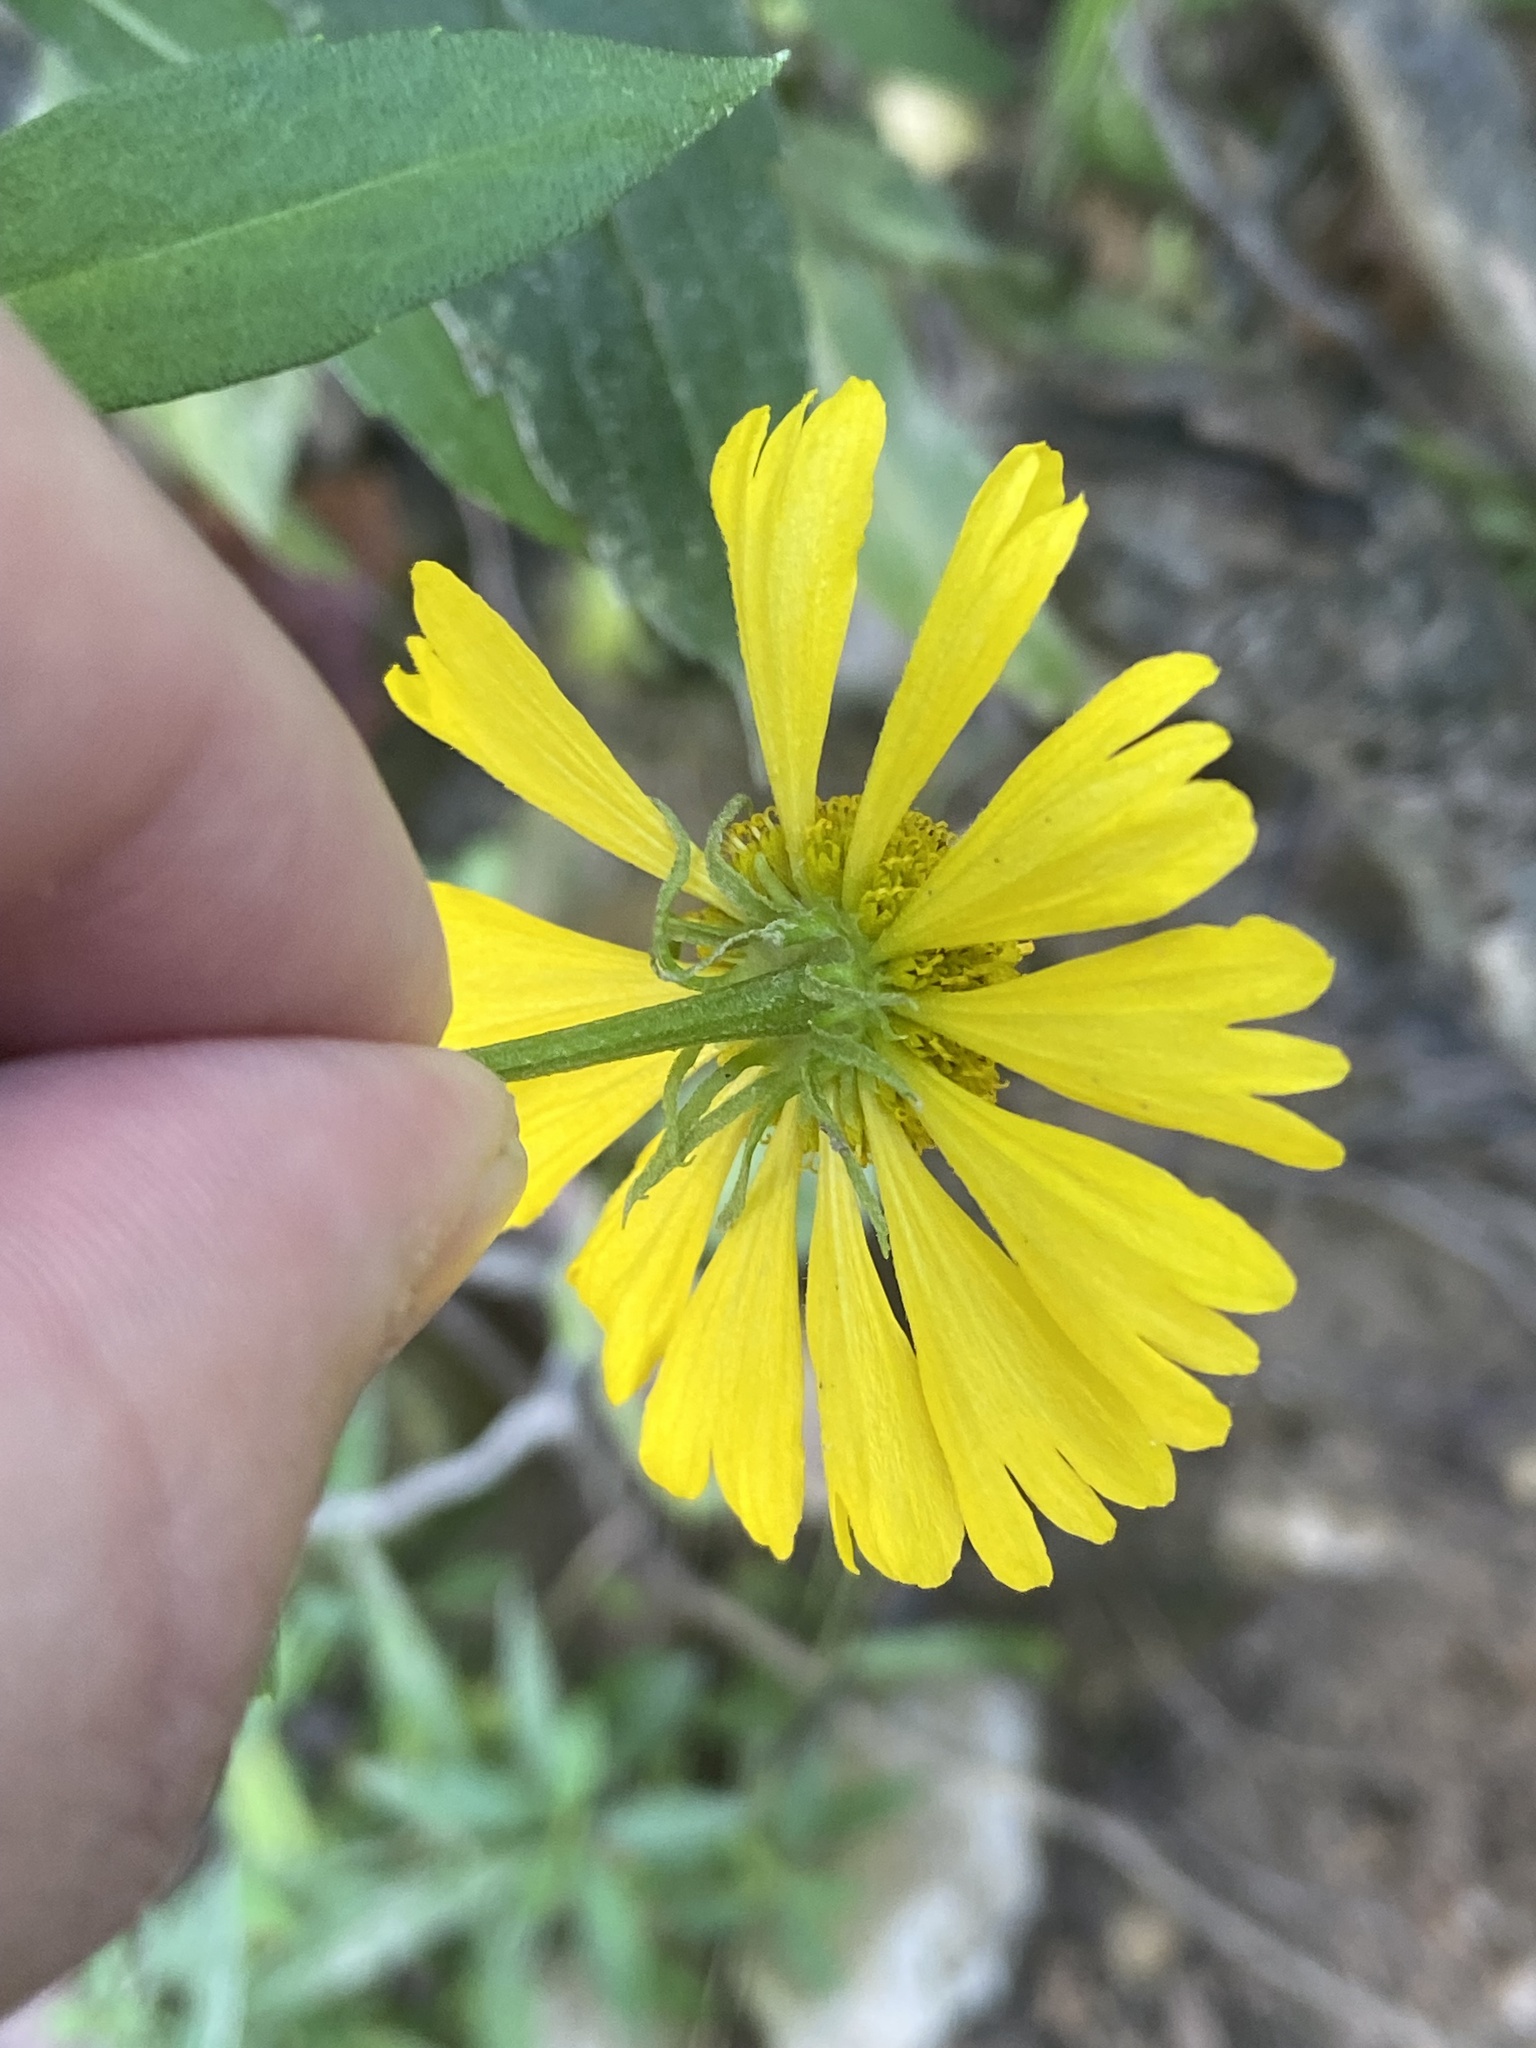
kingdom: Plantae
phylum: Tracheophyta
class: Magnoliopsida
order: Asterales
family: Asteraceae
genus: Helenium
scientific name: Helenium autumnale
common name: Sneezeweed
